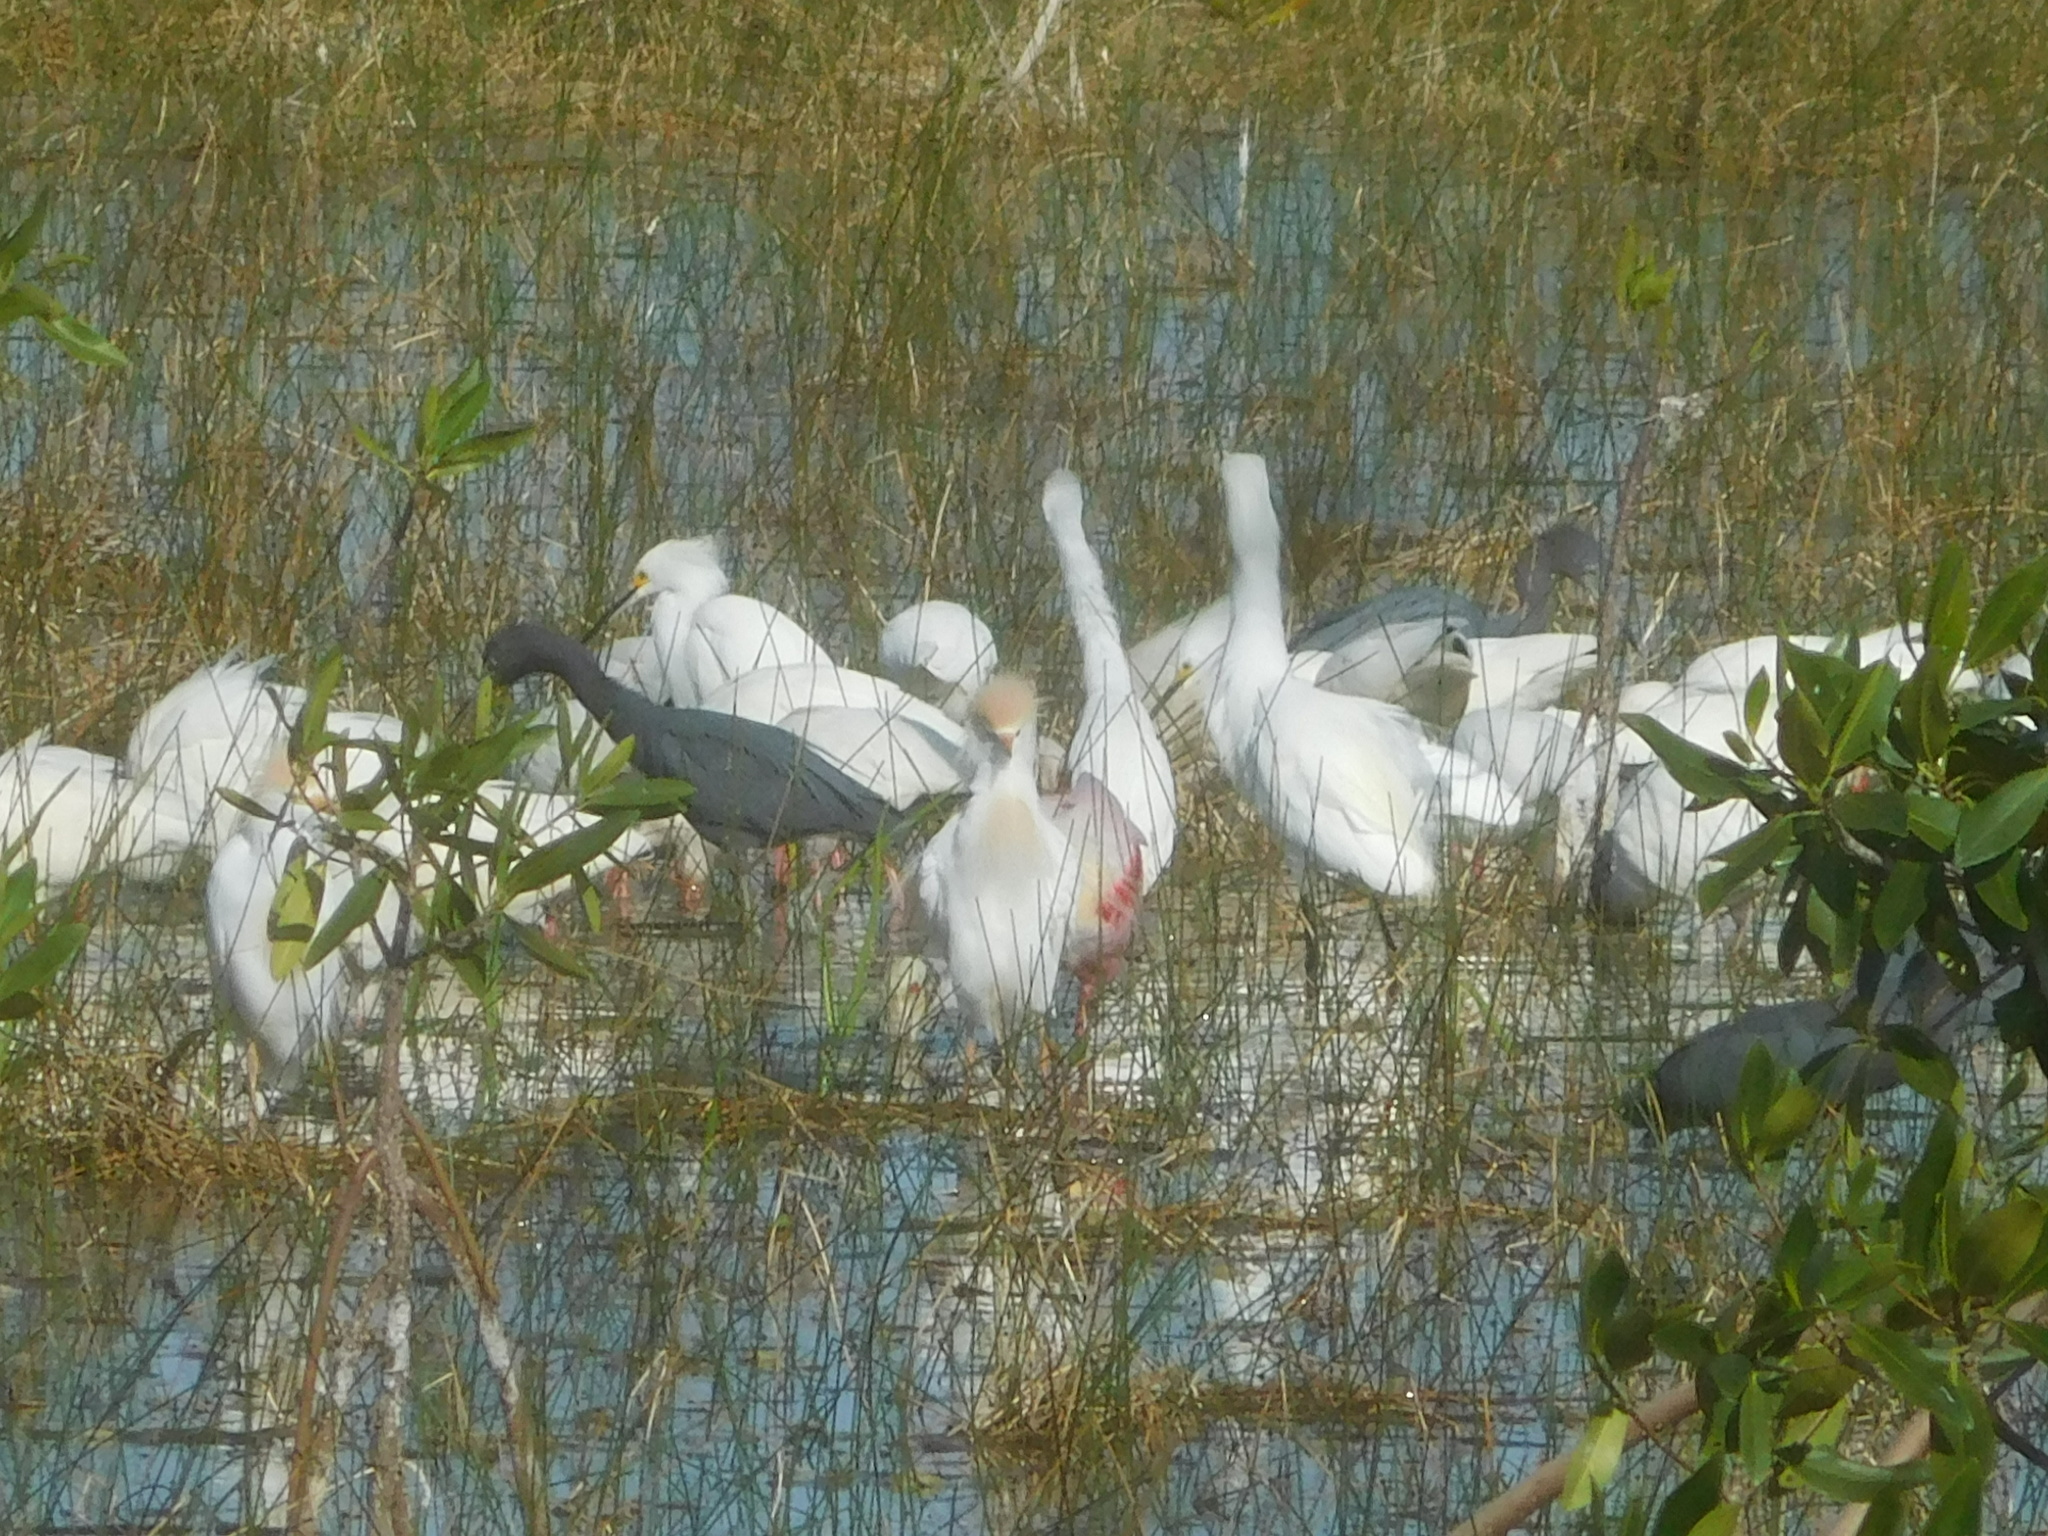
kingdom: Animalia
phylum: Chordata
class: Aves
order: Pelecaniformes
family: Ardeidae
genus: Bubulcus
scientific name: Bubulcus ibis
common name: Cattle egret
